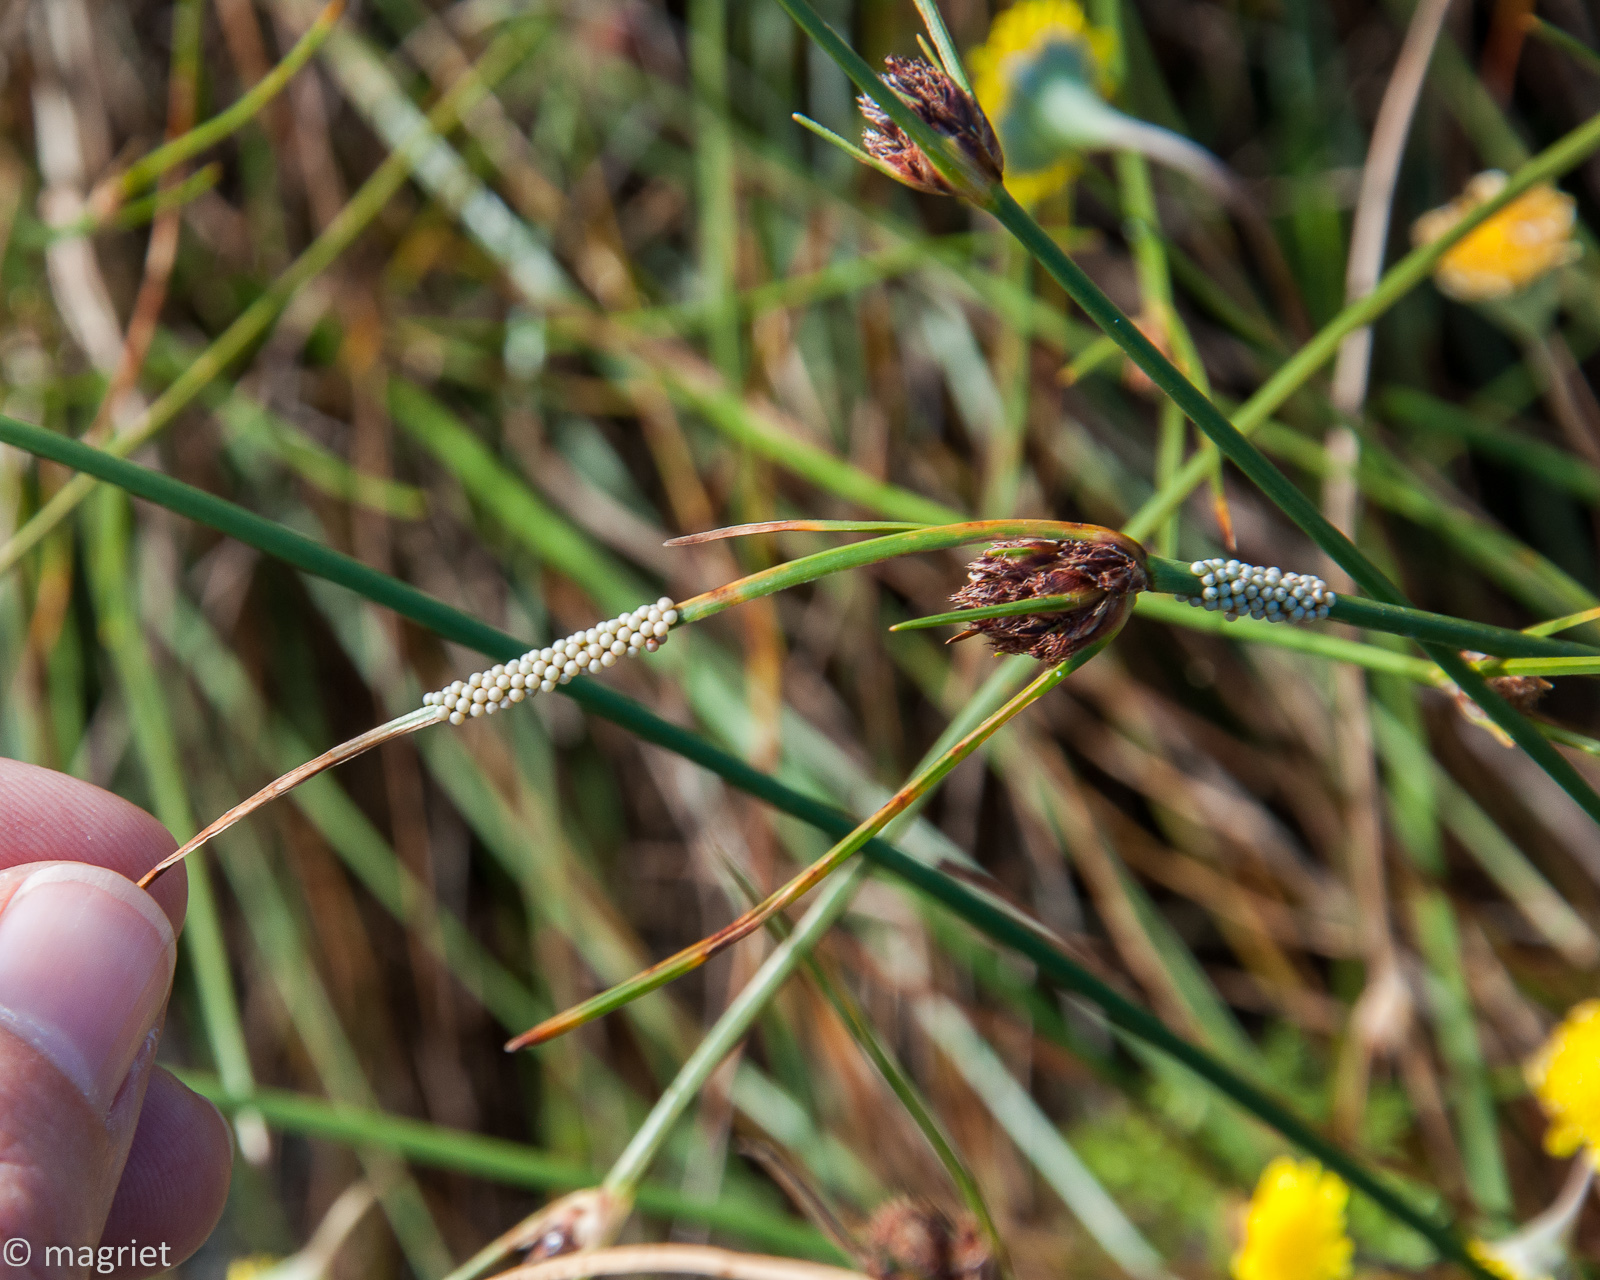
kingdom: Animalia
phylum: Arthropoda
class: Insecta
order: Lepidoptera
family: Erebidae
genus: Thyretes
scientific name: Thyretes hippotes
